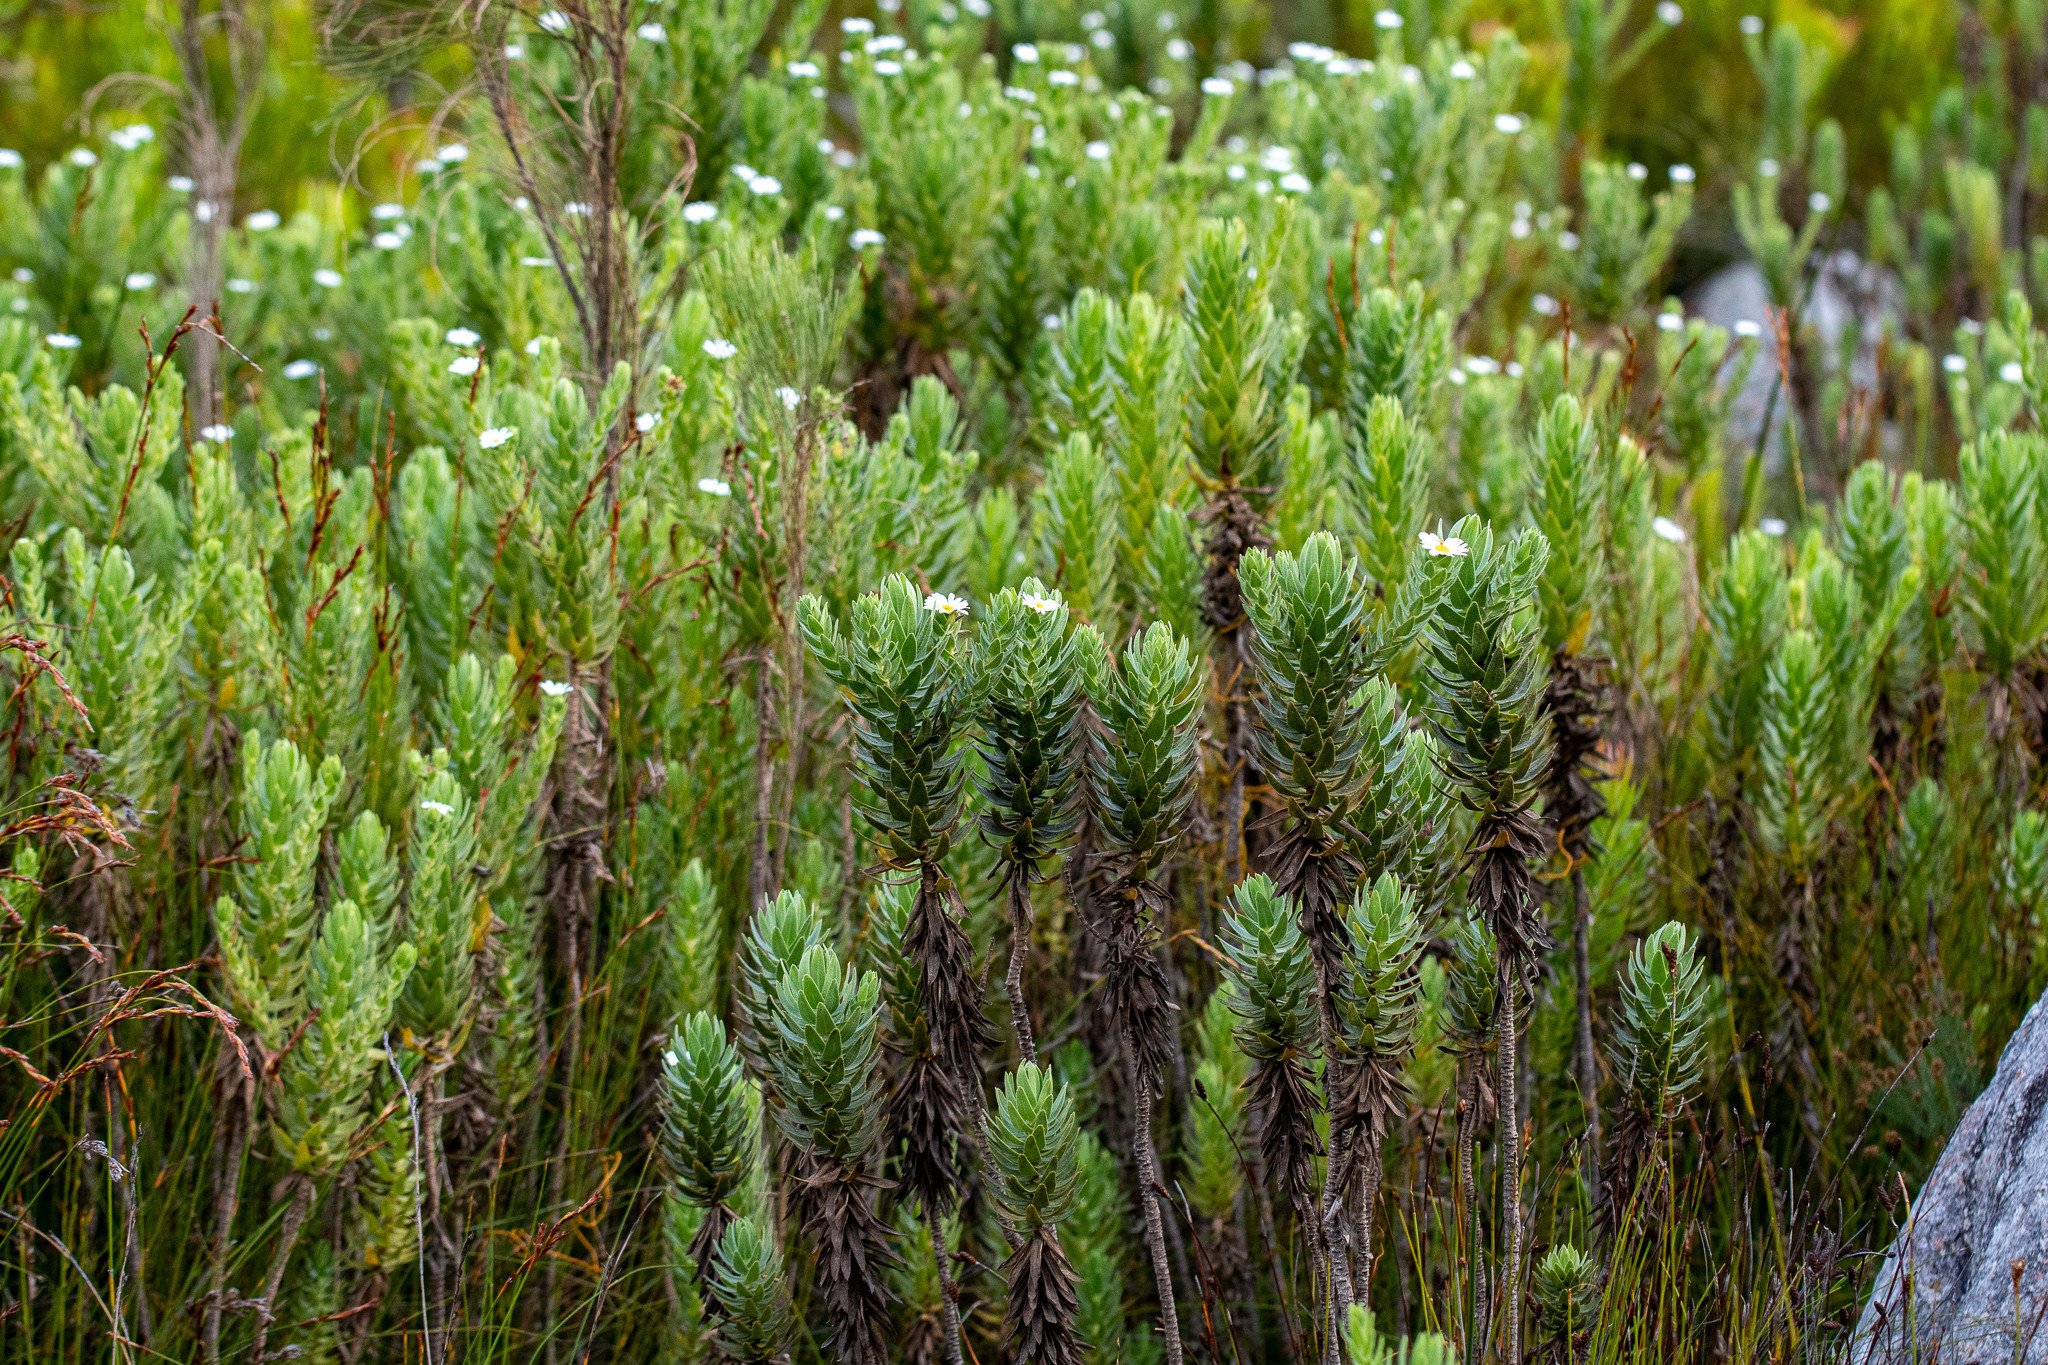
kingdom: Plantae
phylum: Tracheophyta
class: Magnoliopsida
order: Asterales
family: Asteraceae
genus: Osmitopsis
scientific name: Osmitopsis asteriscoides
